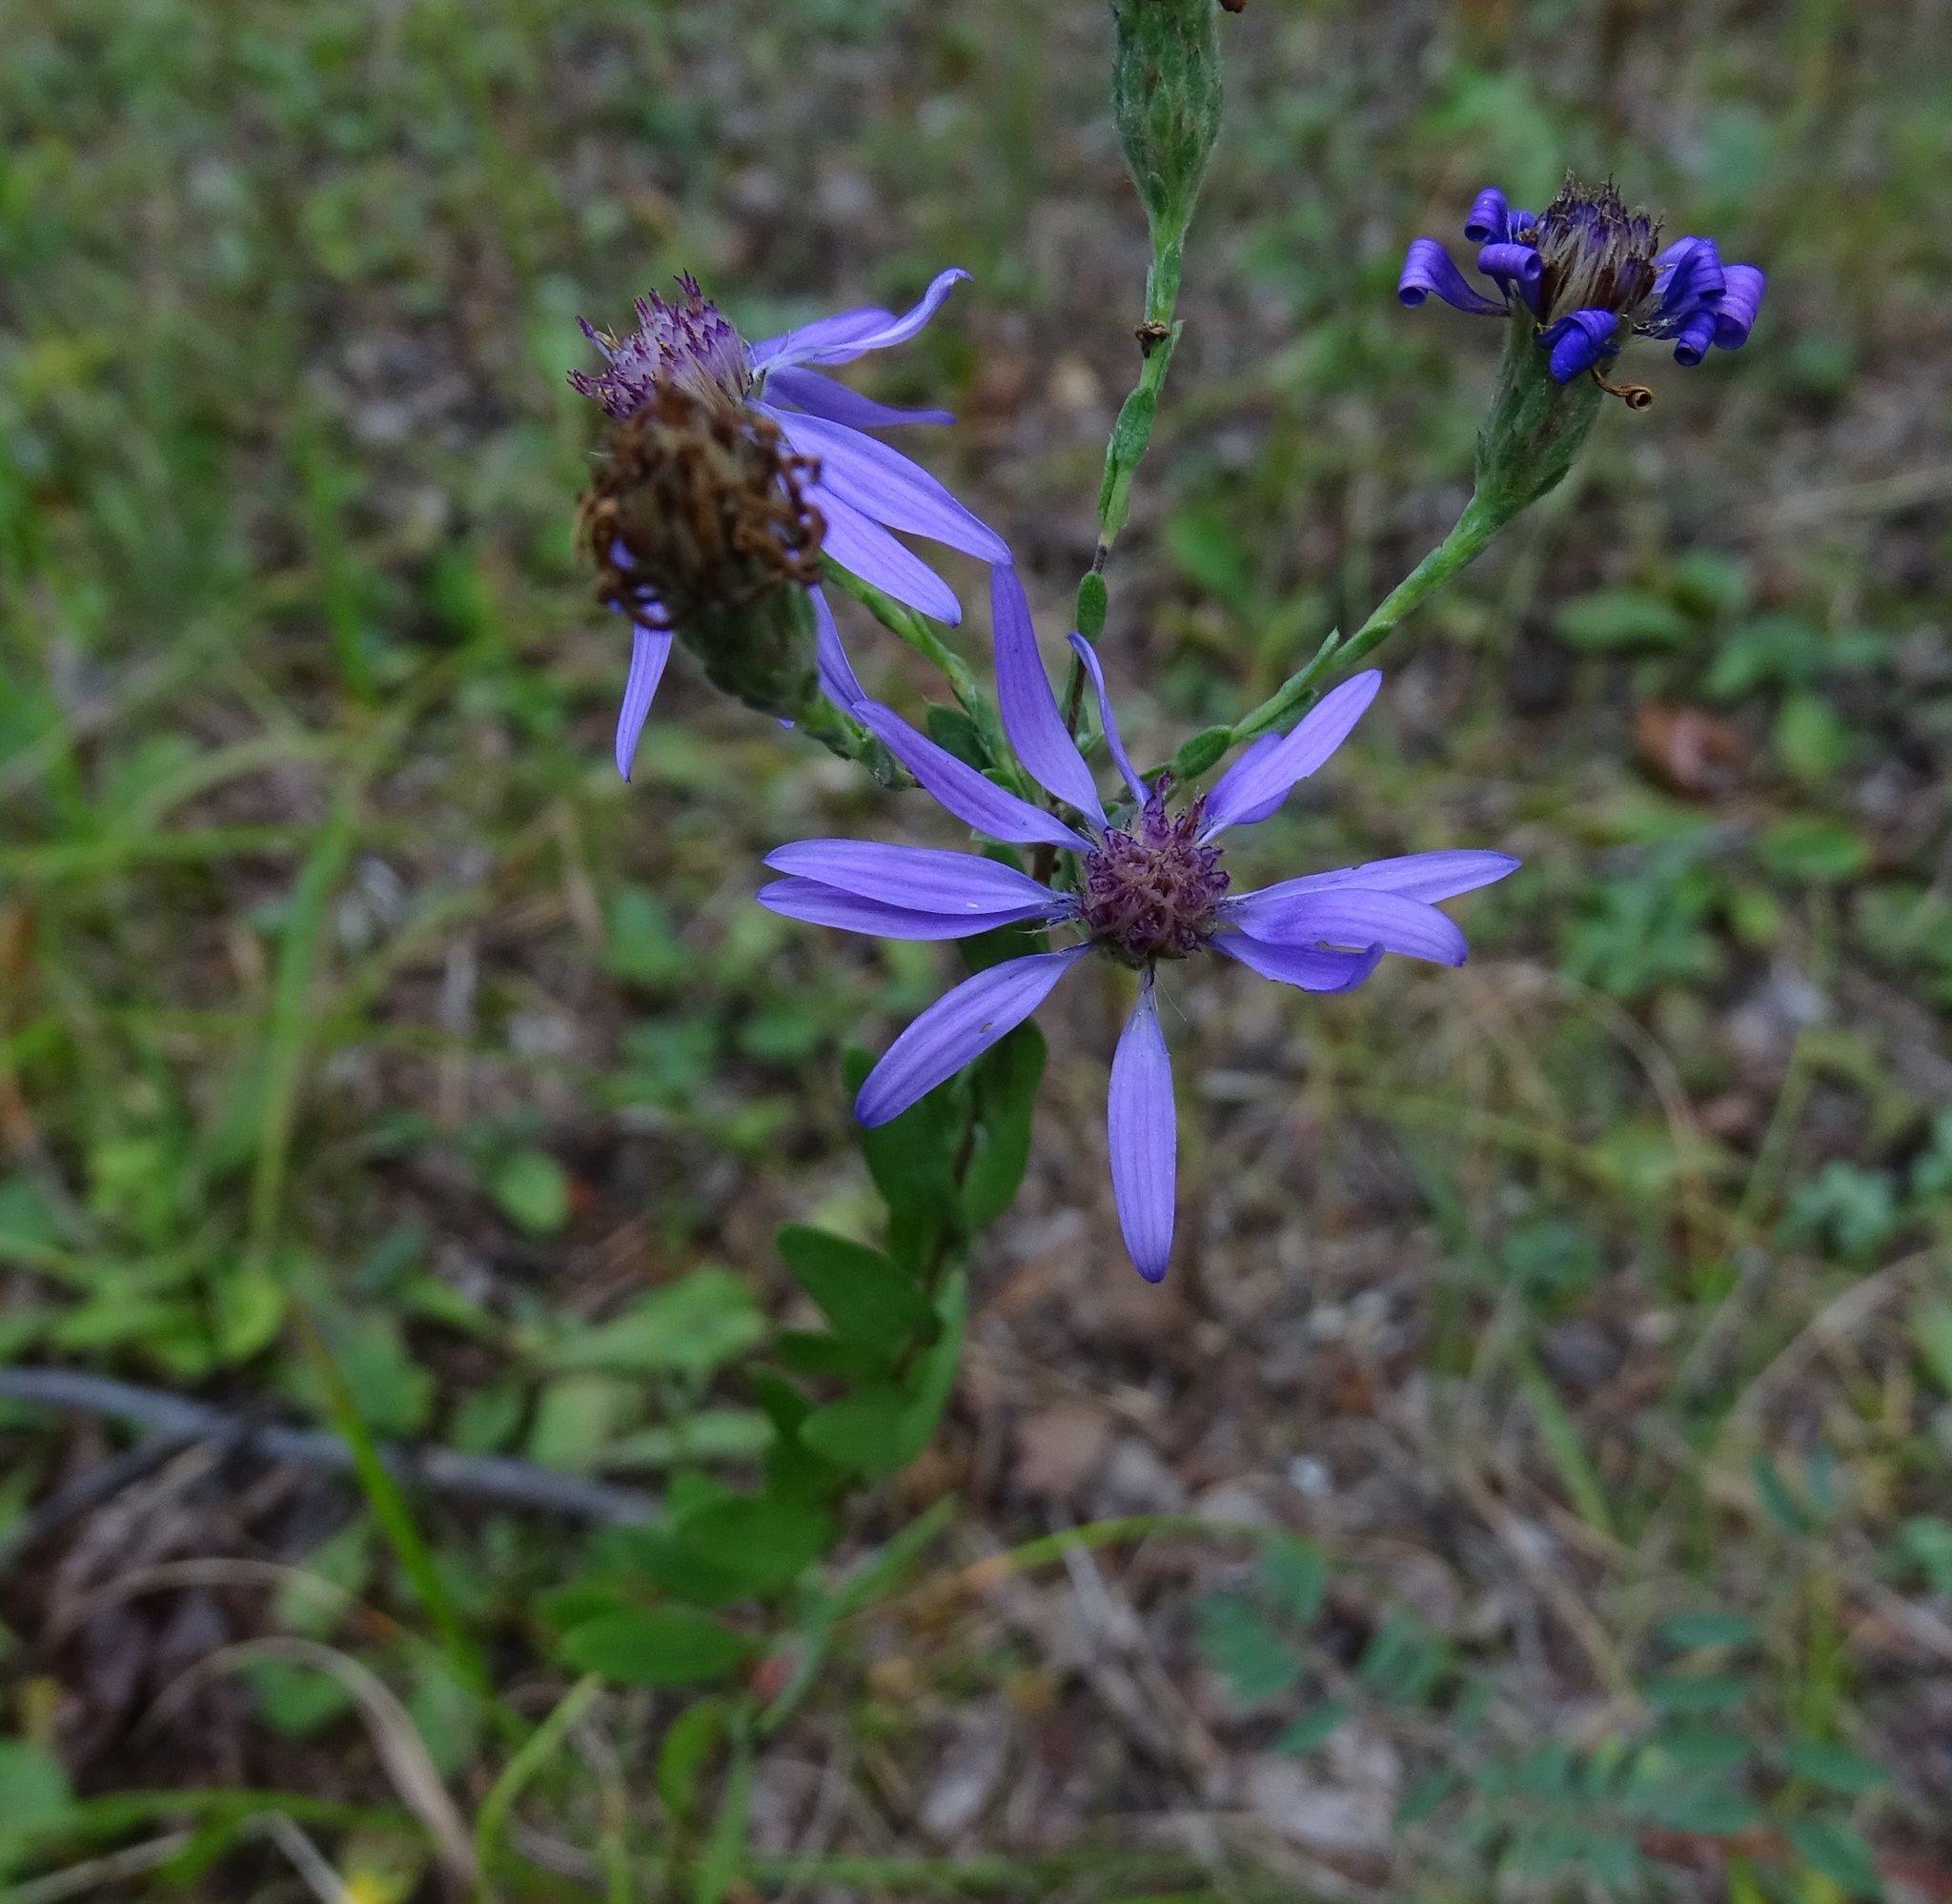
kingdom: Plantae
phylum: Tracheophyta
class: Magnoliopsida
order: Asterales
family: Asteraceae
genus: Symphyotrichum
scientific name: Symphyotrichum concolor
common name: Eastern silver aster
